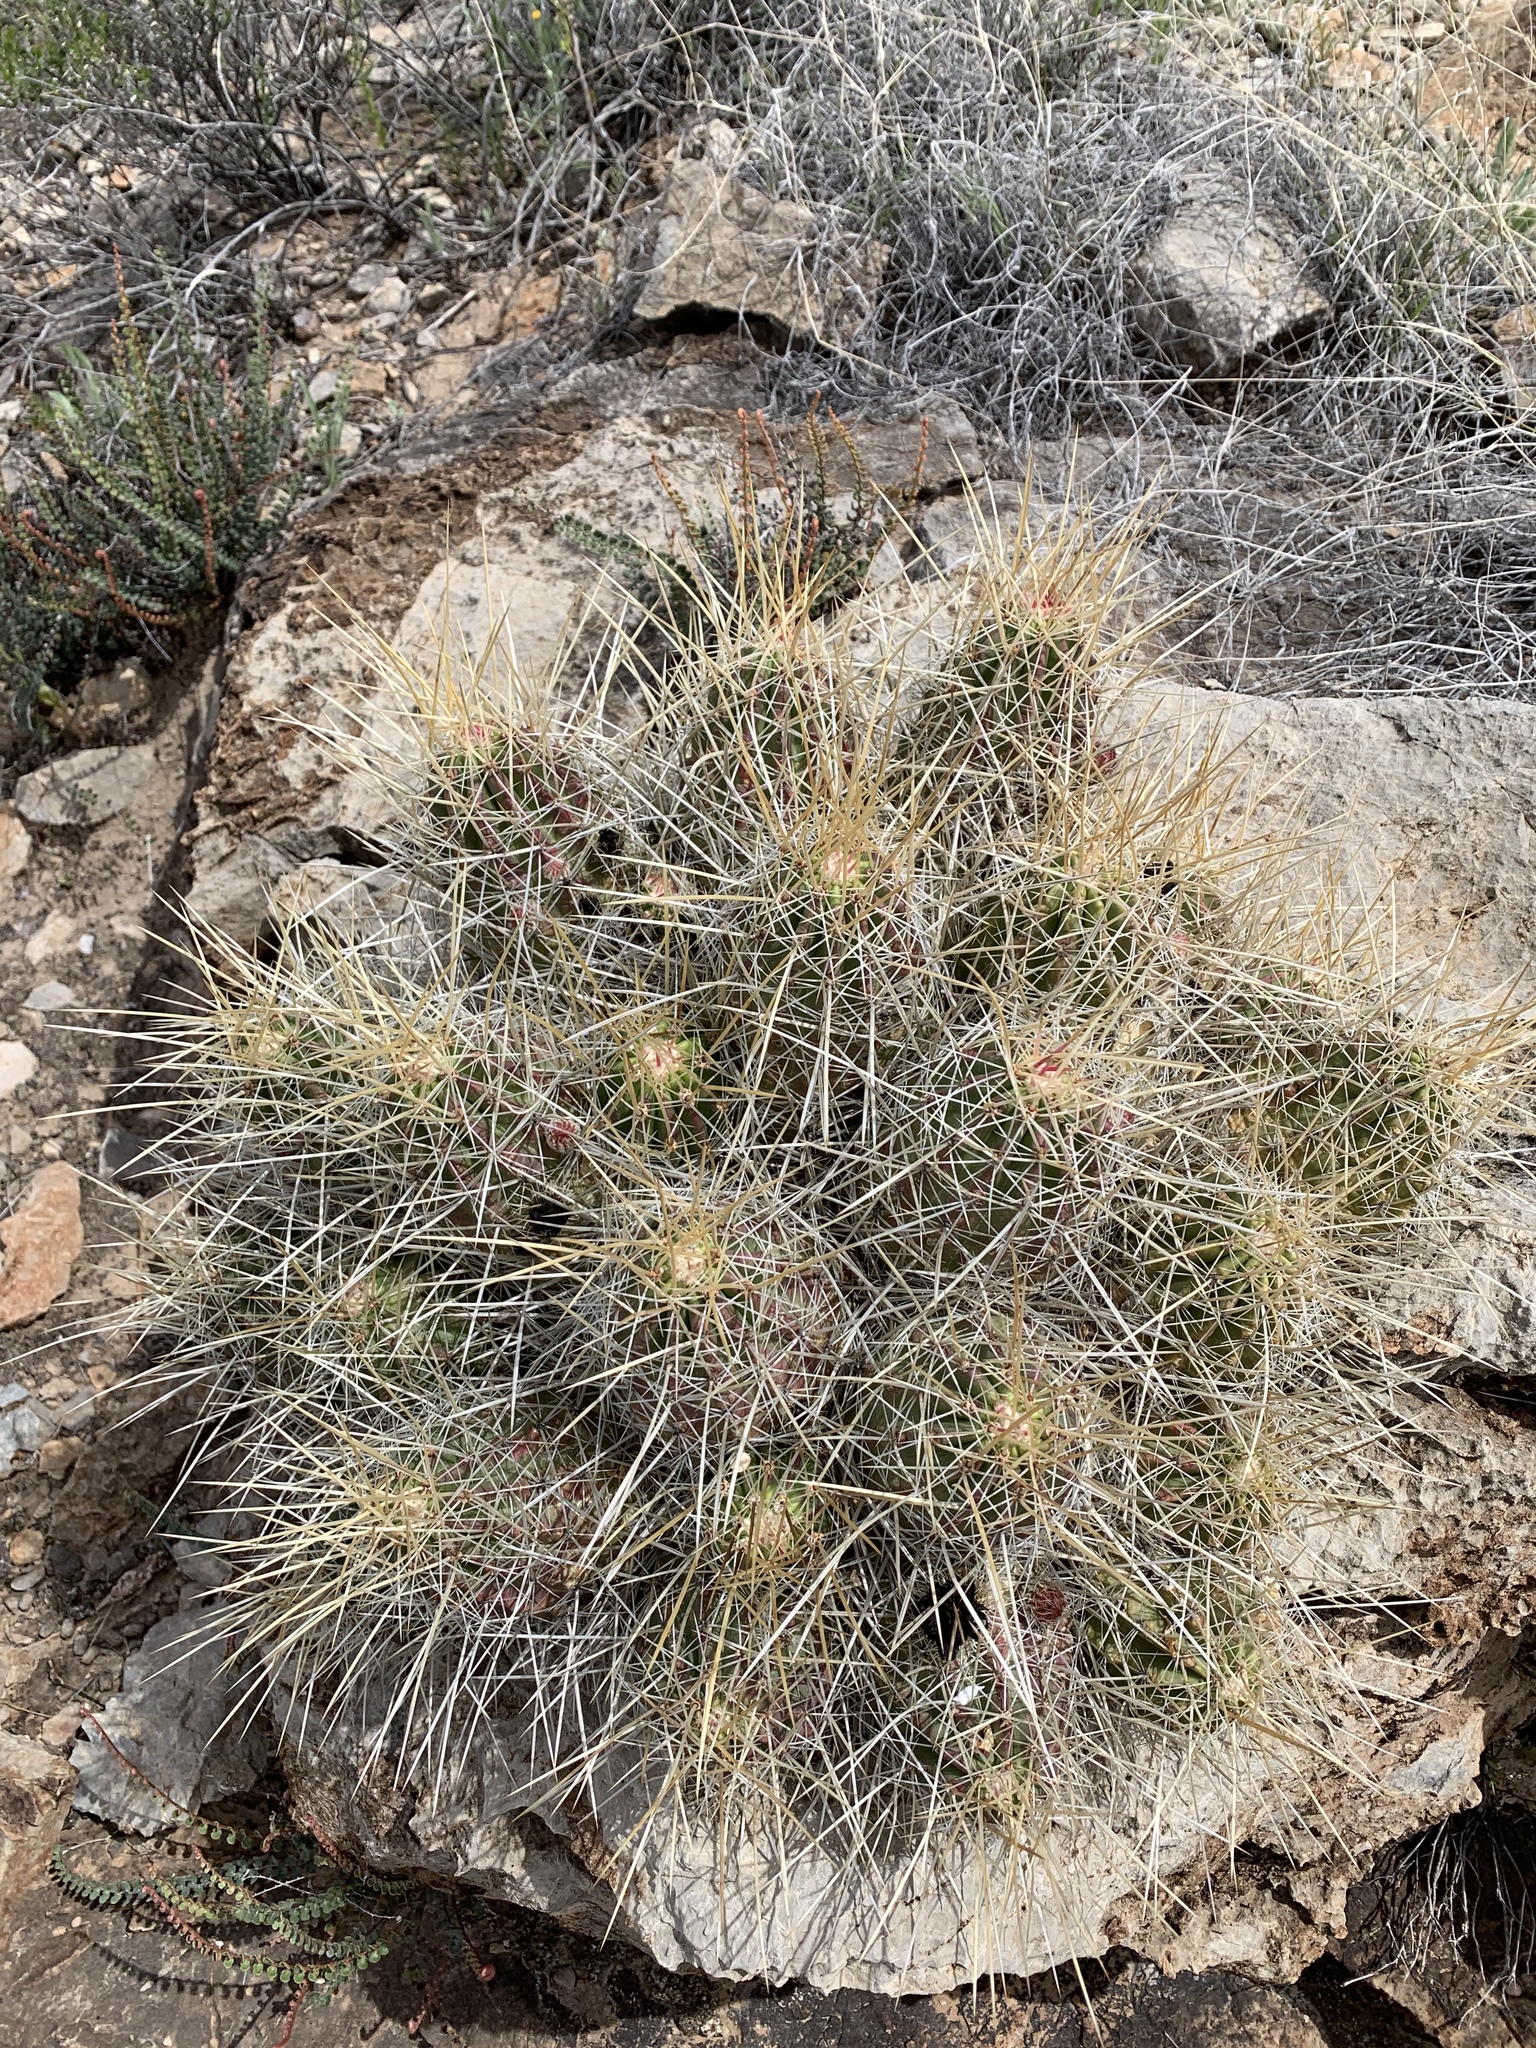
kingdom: Plantae
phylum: Tracheophyta
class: Magnoliopsida
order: Caryophyllales
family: Cactaceae
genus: Echinocereus
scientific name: Echinocereus stramineus
